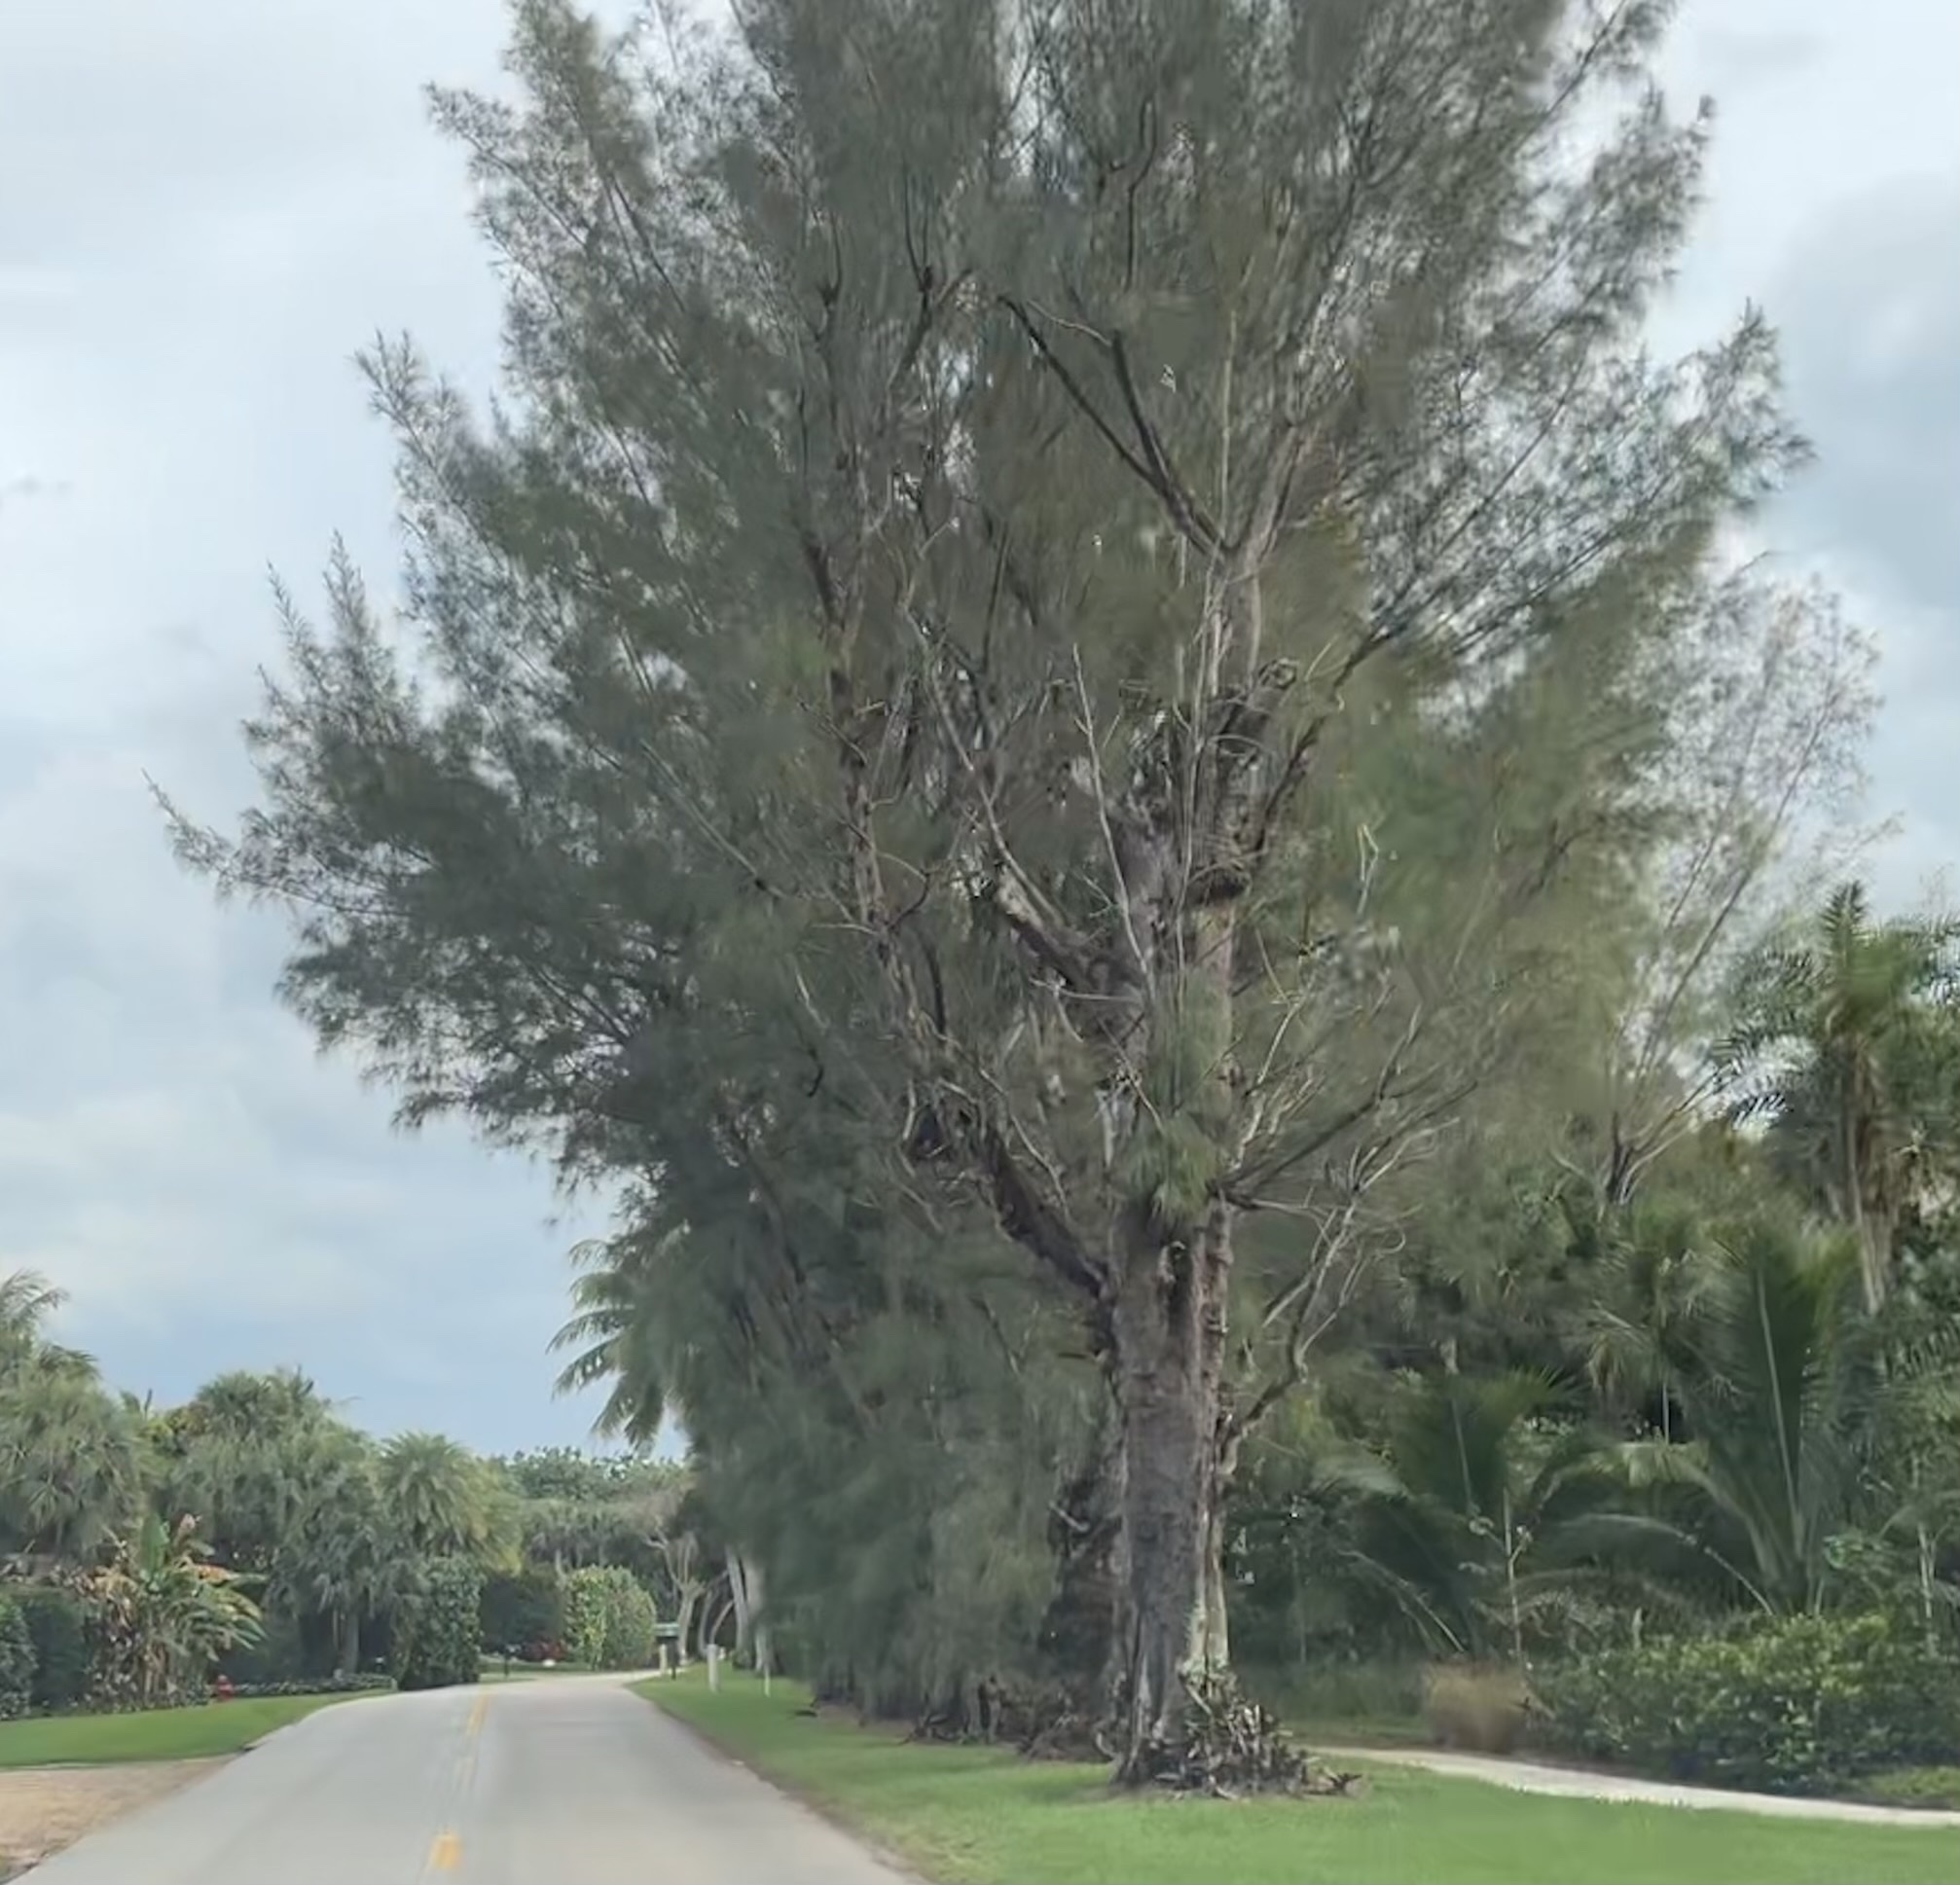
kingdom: Plantae
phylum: Tracheophyta
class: Magnoliopsida
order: Fagales
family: Casuarinaceae
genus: Casuarina
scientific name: Casuarina equisetifolia
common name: Beach sheoak
